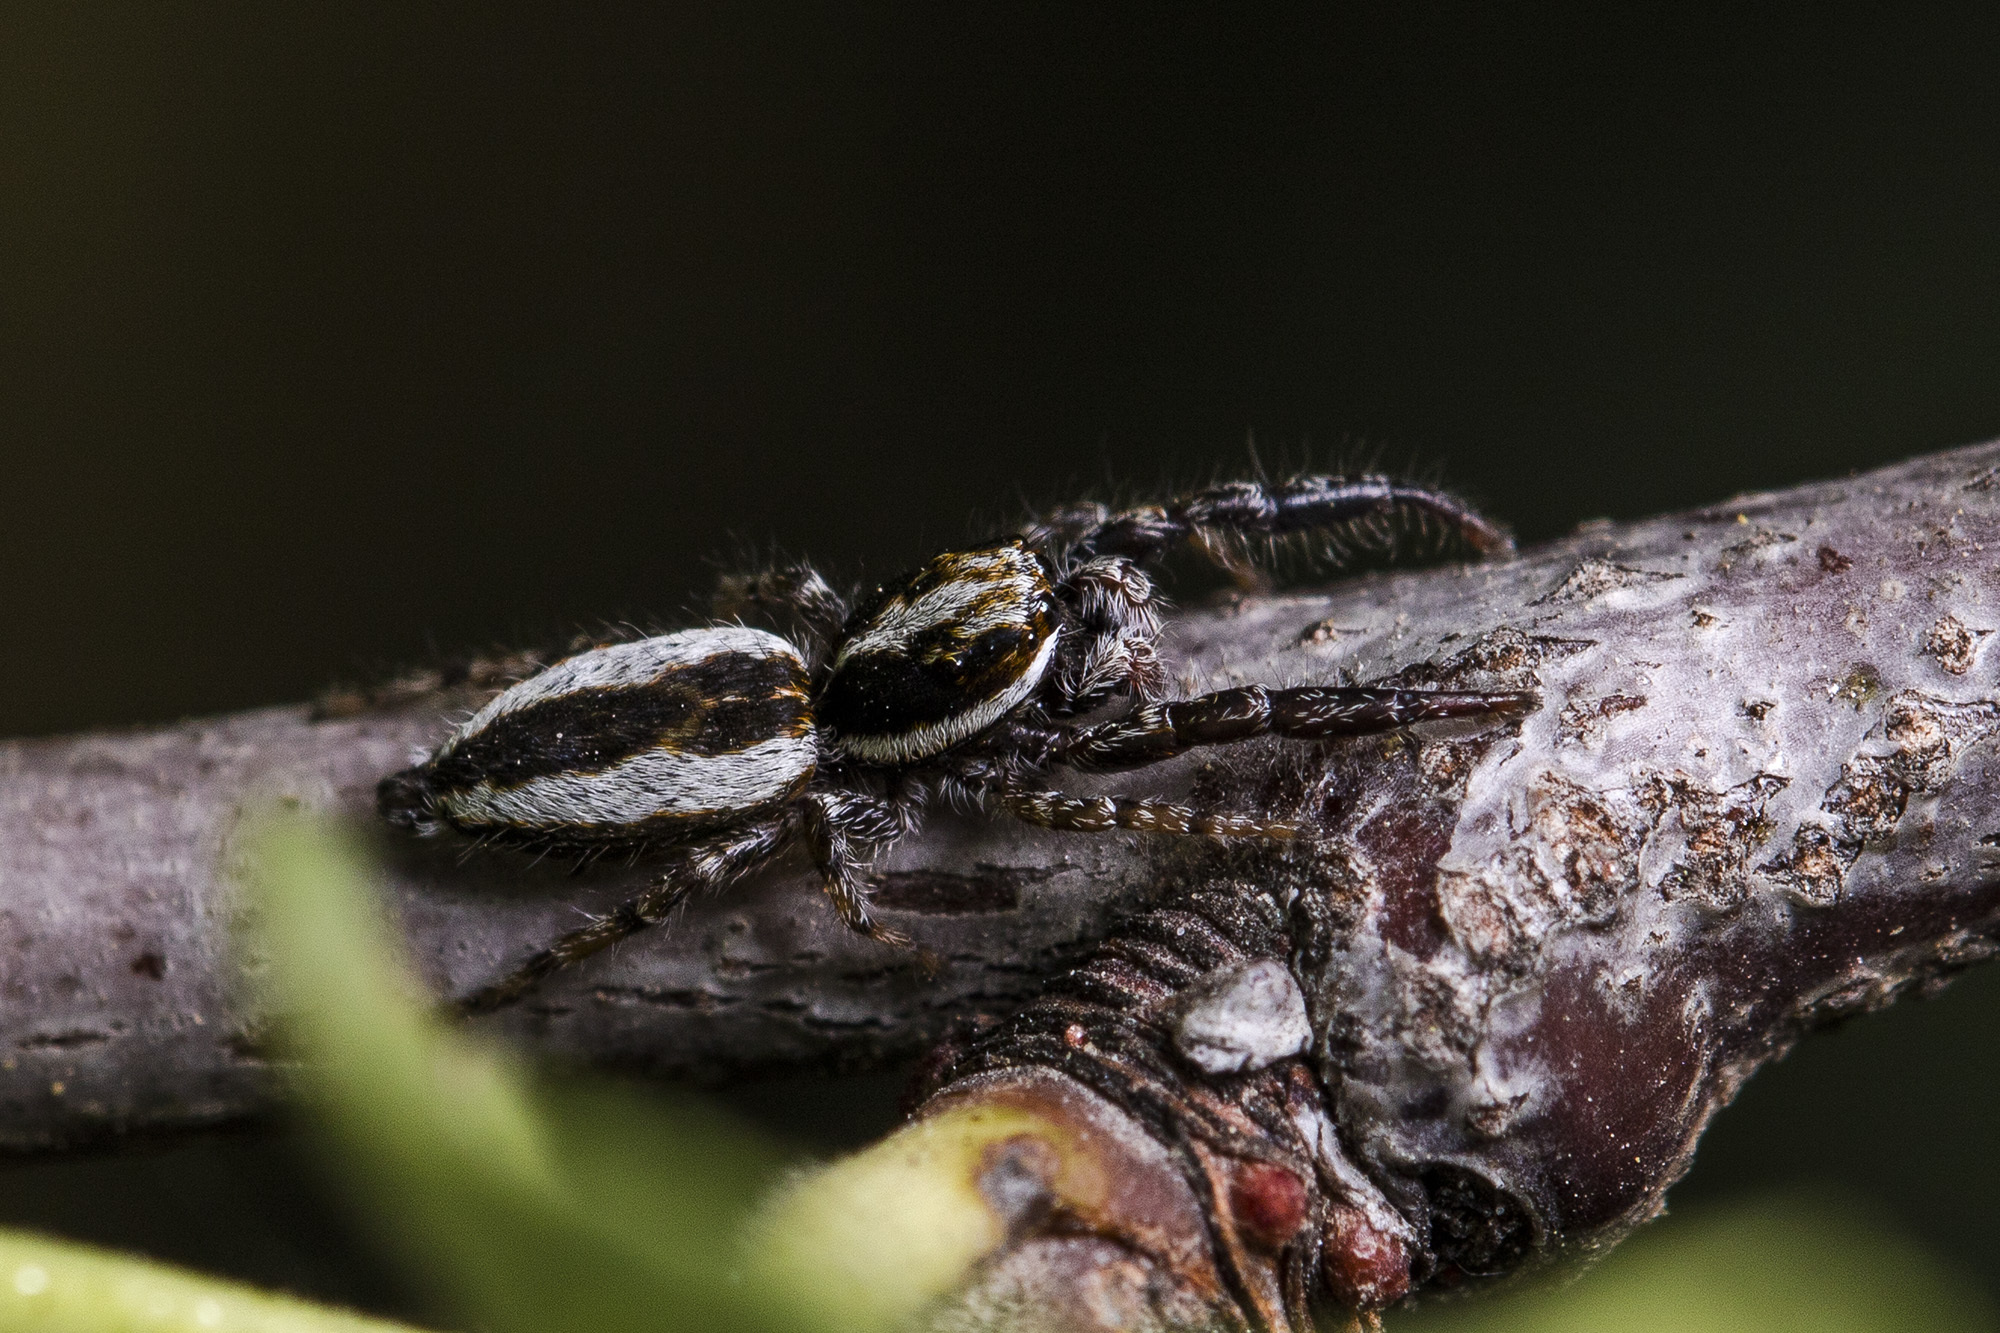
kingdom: Animalia
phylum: Arthropoda
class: Arachnida
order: Araneae
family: Salticidae
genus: Pseudicius
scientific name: Pseudicius encarpatus
